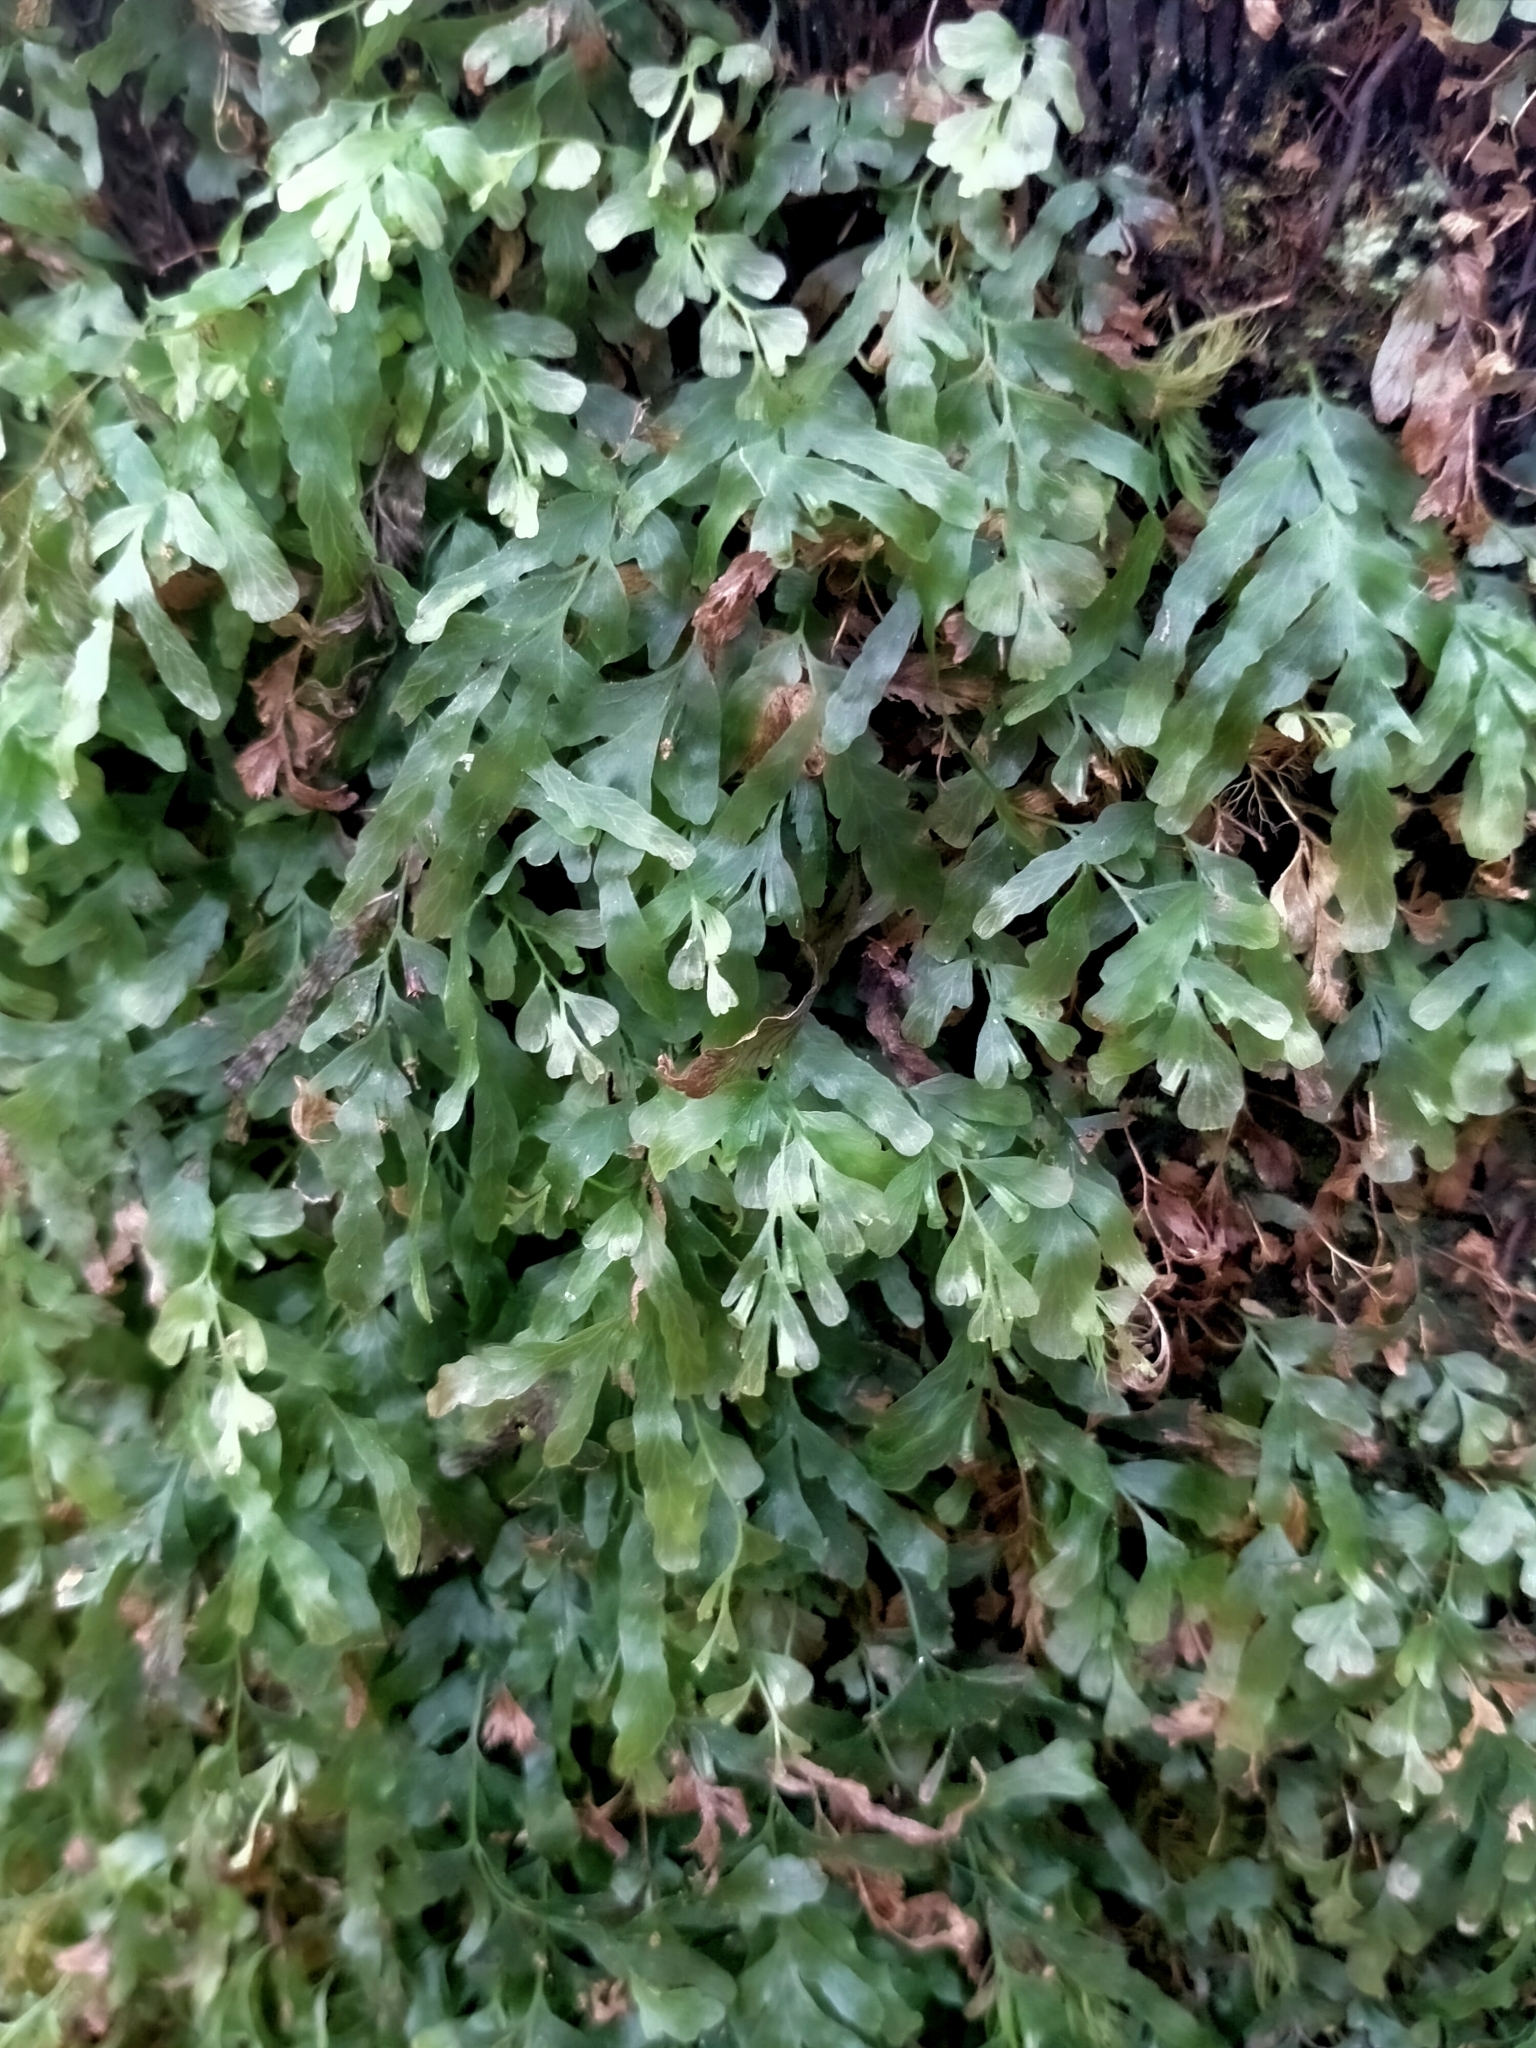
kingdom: Plantae
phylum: Tracheophyta
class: Polypodiopsida
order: Hymenophyllales
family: Hymenophyllaceae
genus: Polyphlebium
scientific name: Polyphlebium venosum
